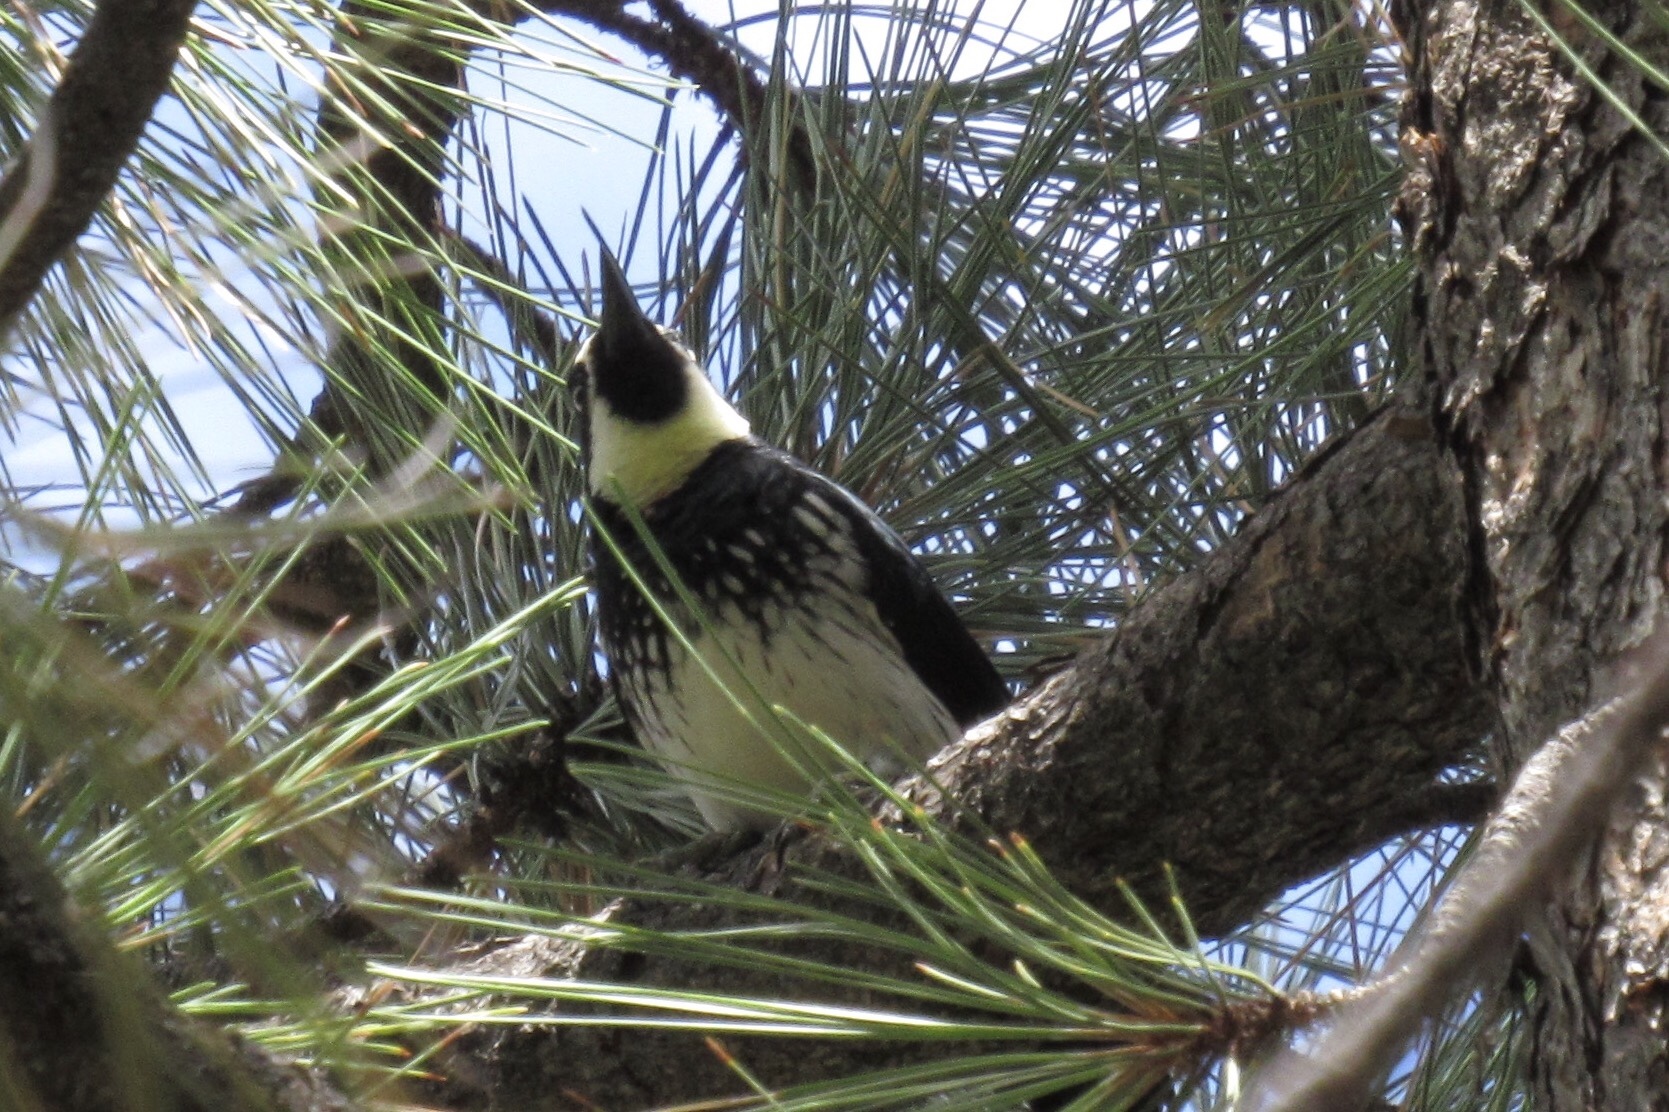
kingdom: Animalia
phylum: Chordata
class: Aves
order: Piciformes
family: Picidae
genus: Melanerpes
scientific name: Melanerpes formicivorus
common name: Acorn woodpecker
